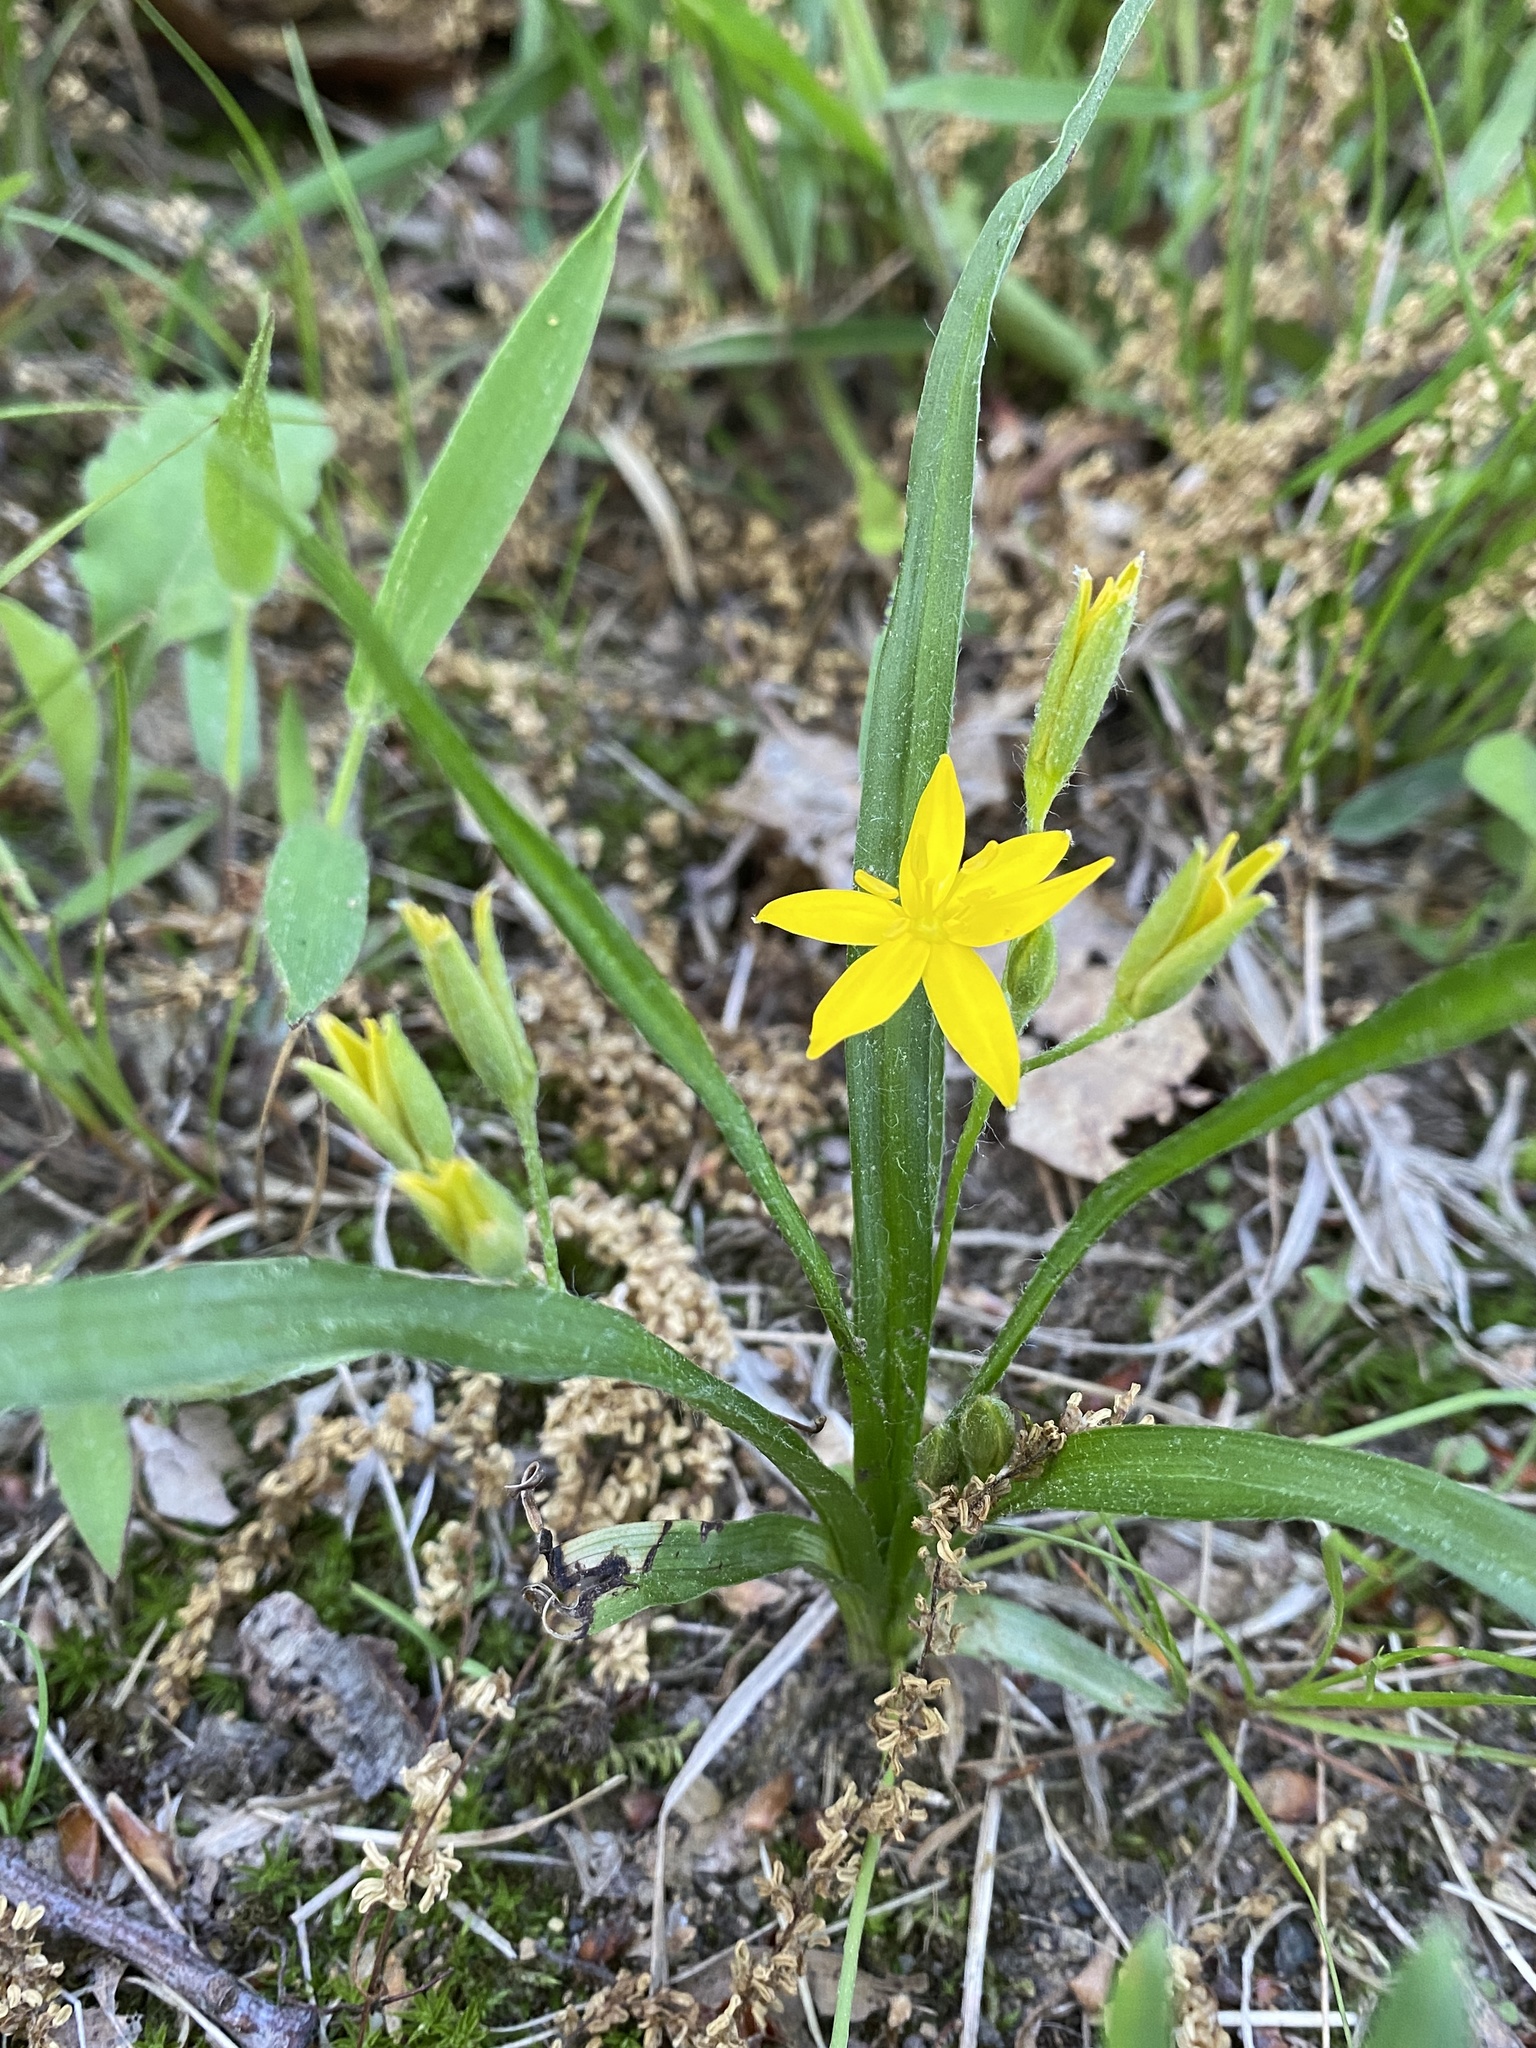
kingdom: Plantae
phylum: Tracheophyta
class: Liliopsida
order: Asparagales
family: Hypoxidaceae
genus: Hypoxis
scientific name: Hypoxis hirsuta
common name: Common goldstar
